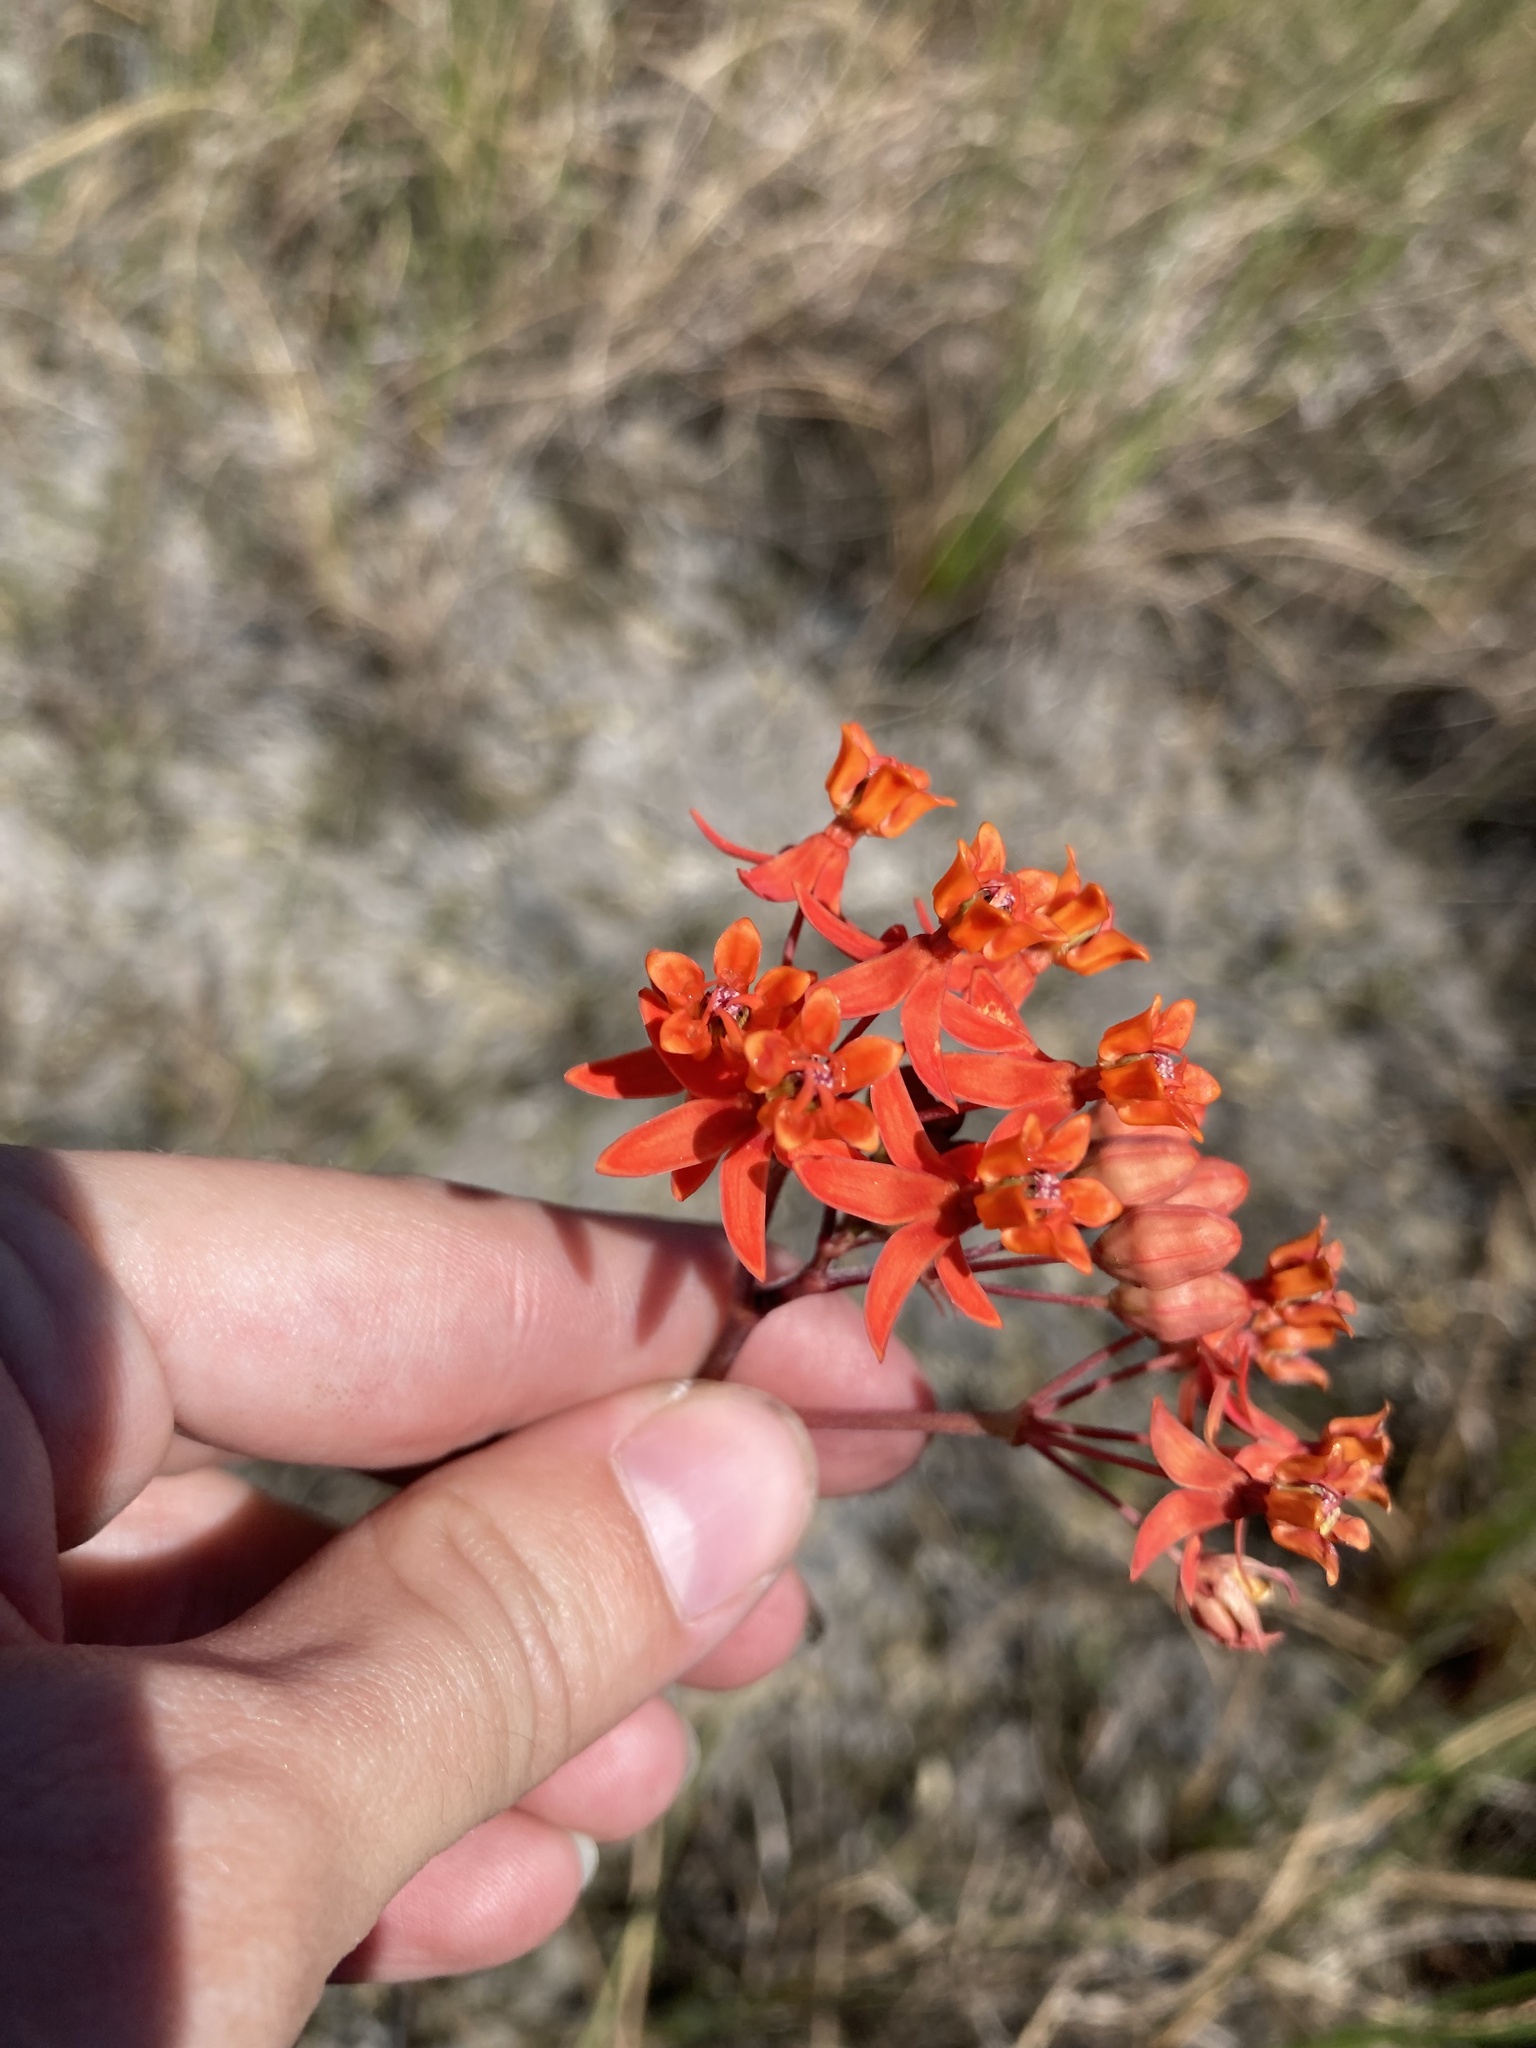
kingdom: Plantae
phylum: Tracheophyta
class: Magnoliopsida
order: Gentianales
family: Apocynaceae
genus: Asclepias
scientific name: Asclepias lanceolata
